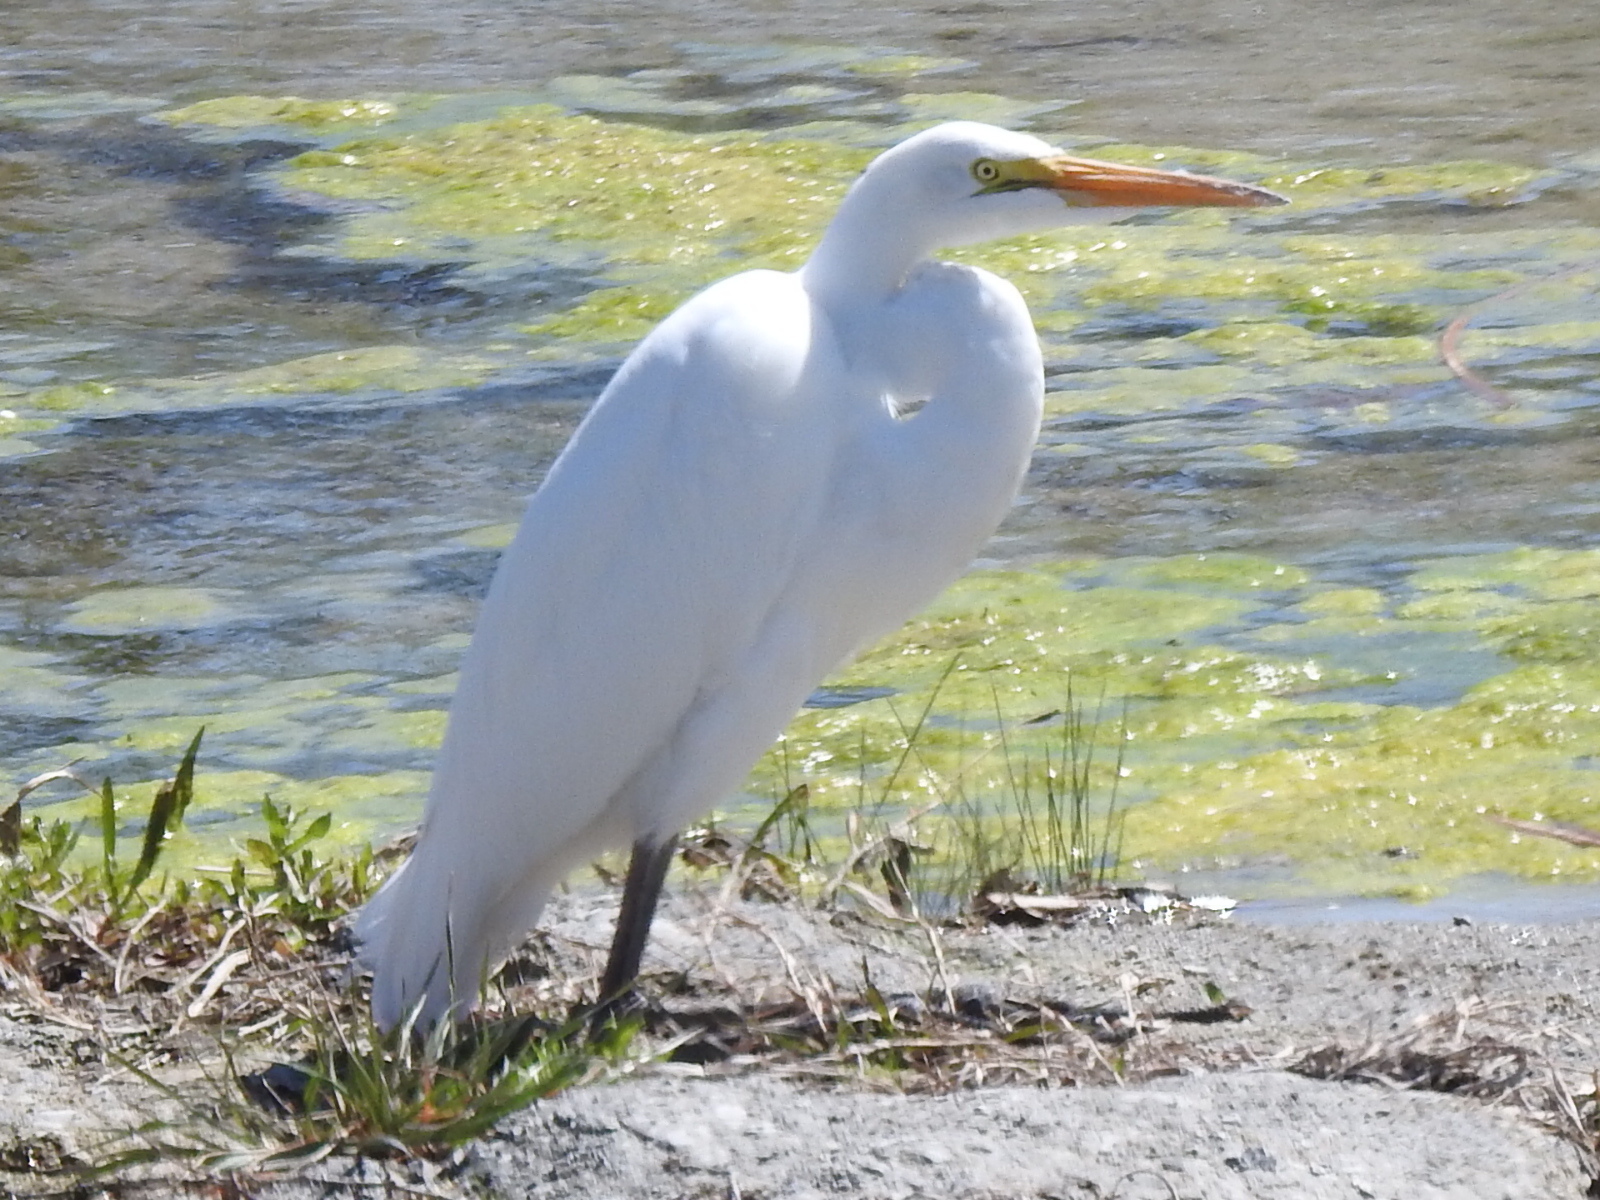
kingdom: Animalia
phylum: Chordata
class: Aves
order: Pelecaniformes
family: Ardeidae
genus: Ardea
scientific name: Ardea alba
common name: Great egret
